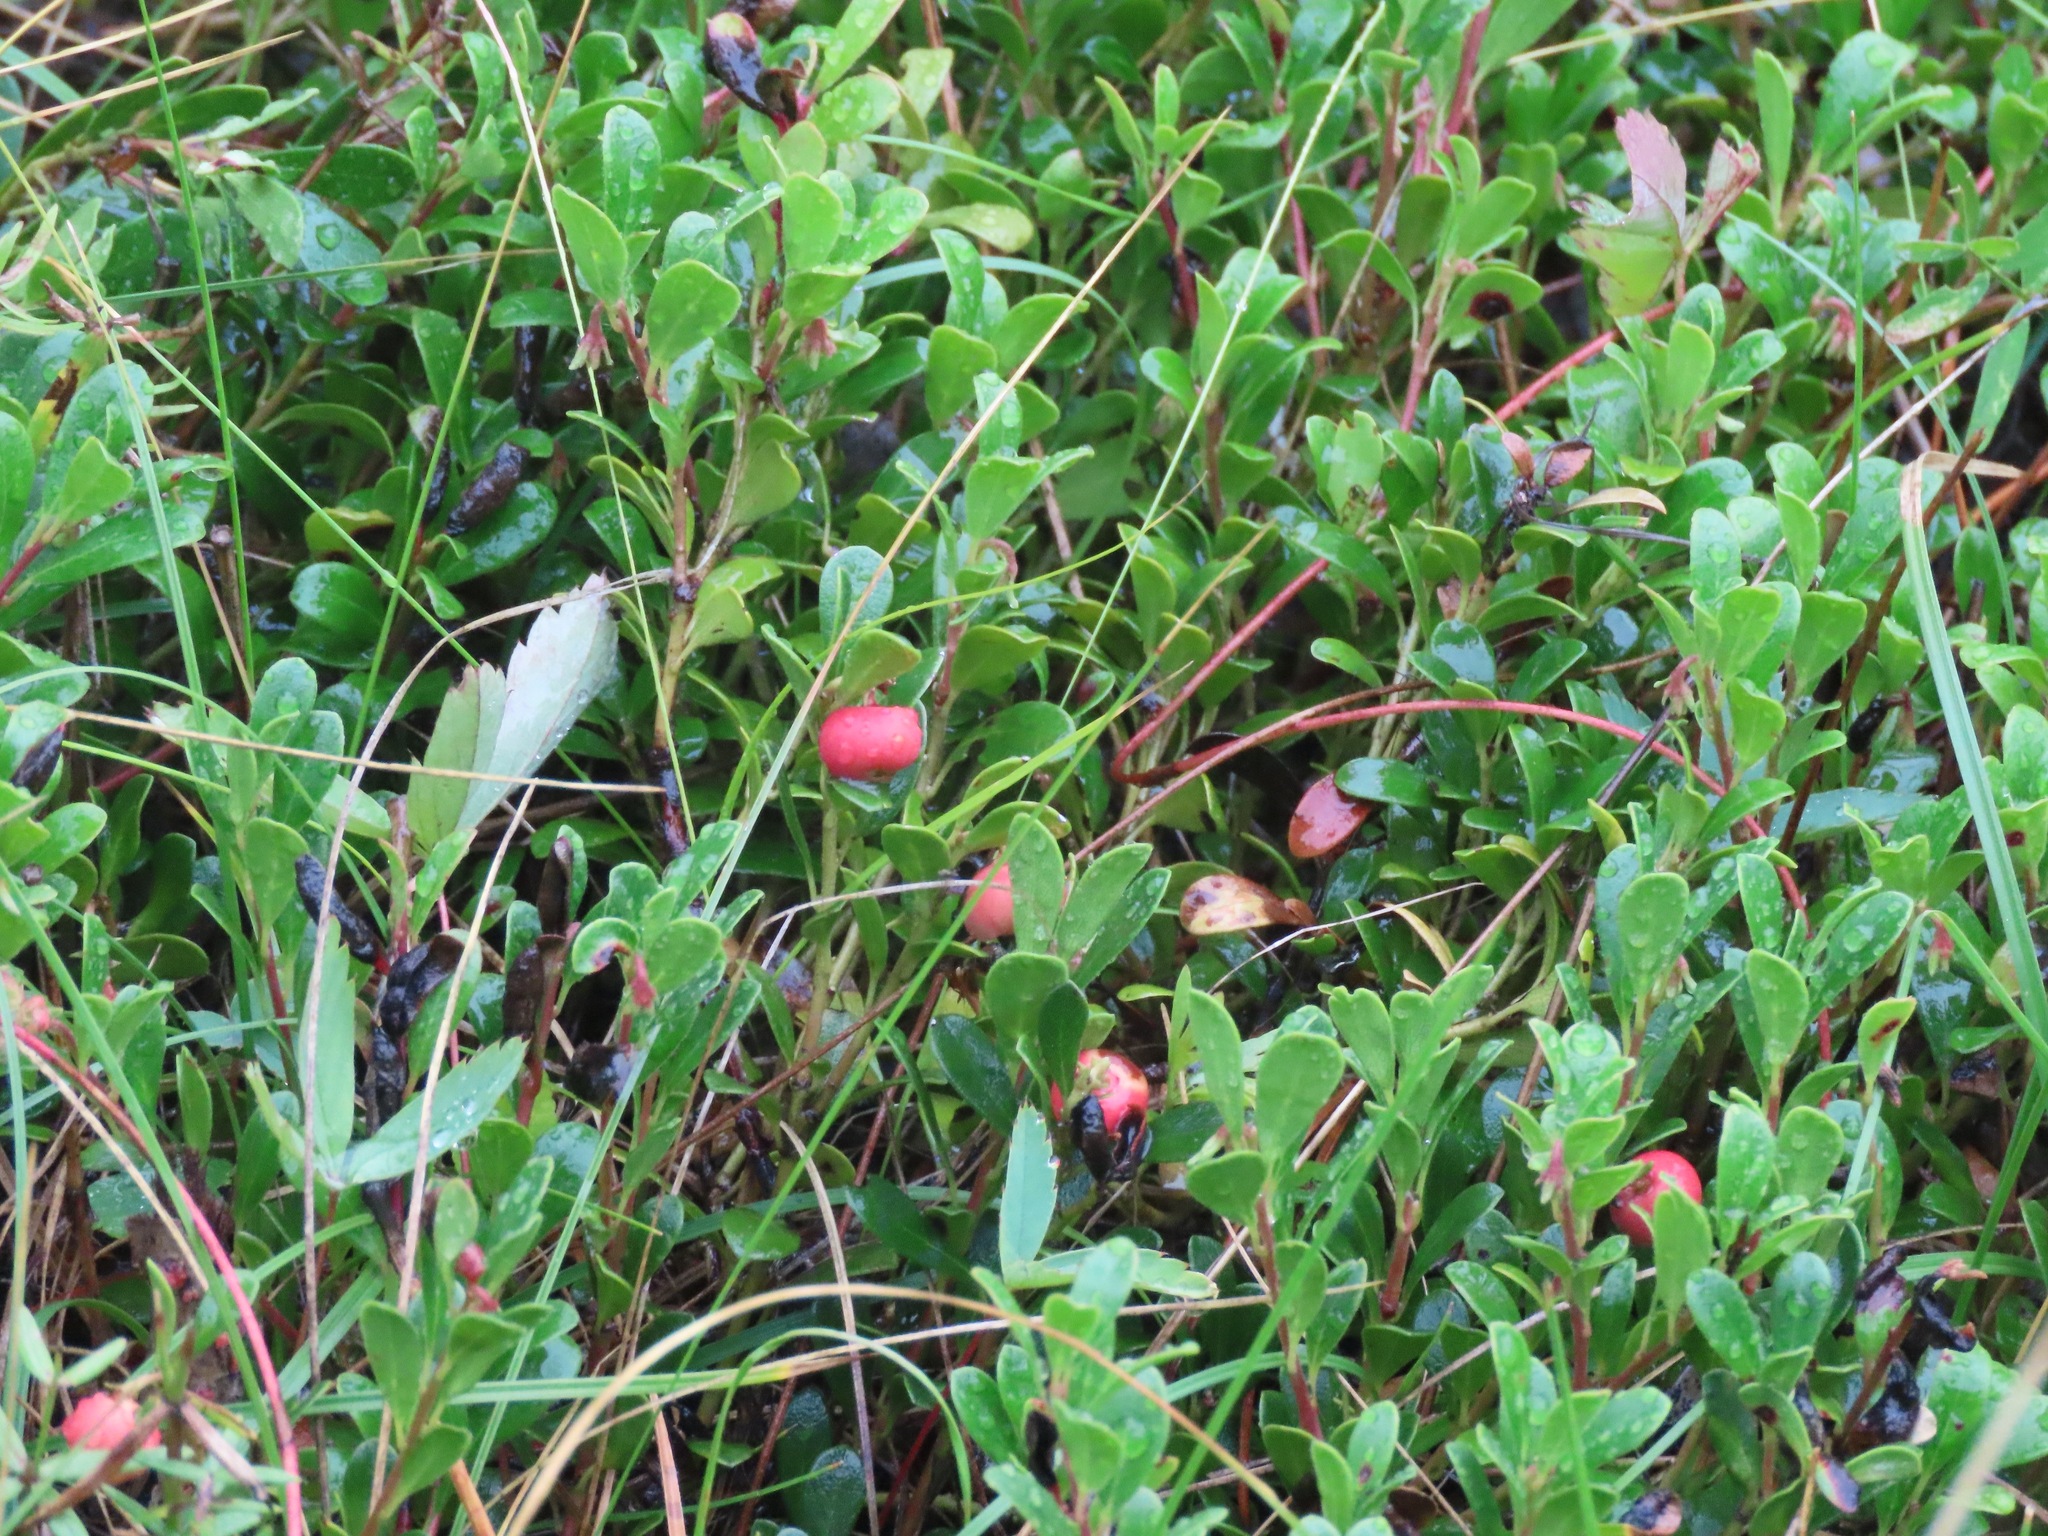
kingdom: Plantae
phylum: Tracheophyta
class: Magnoliopsida
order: Ericales
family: Ericaceae
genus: Arctostaphylos
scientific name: Arctostaphylos uva-ursi
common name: Bearberry
